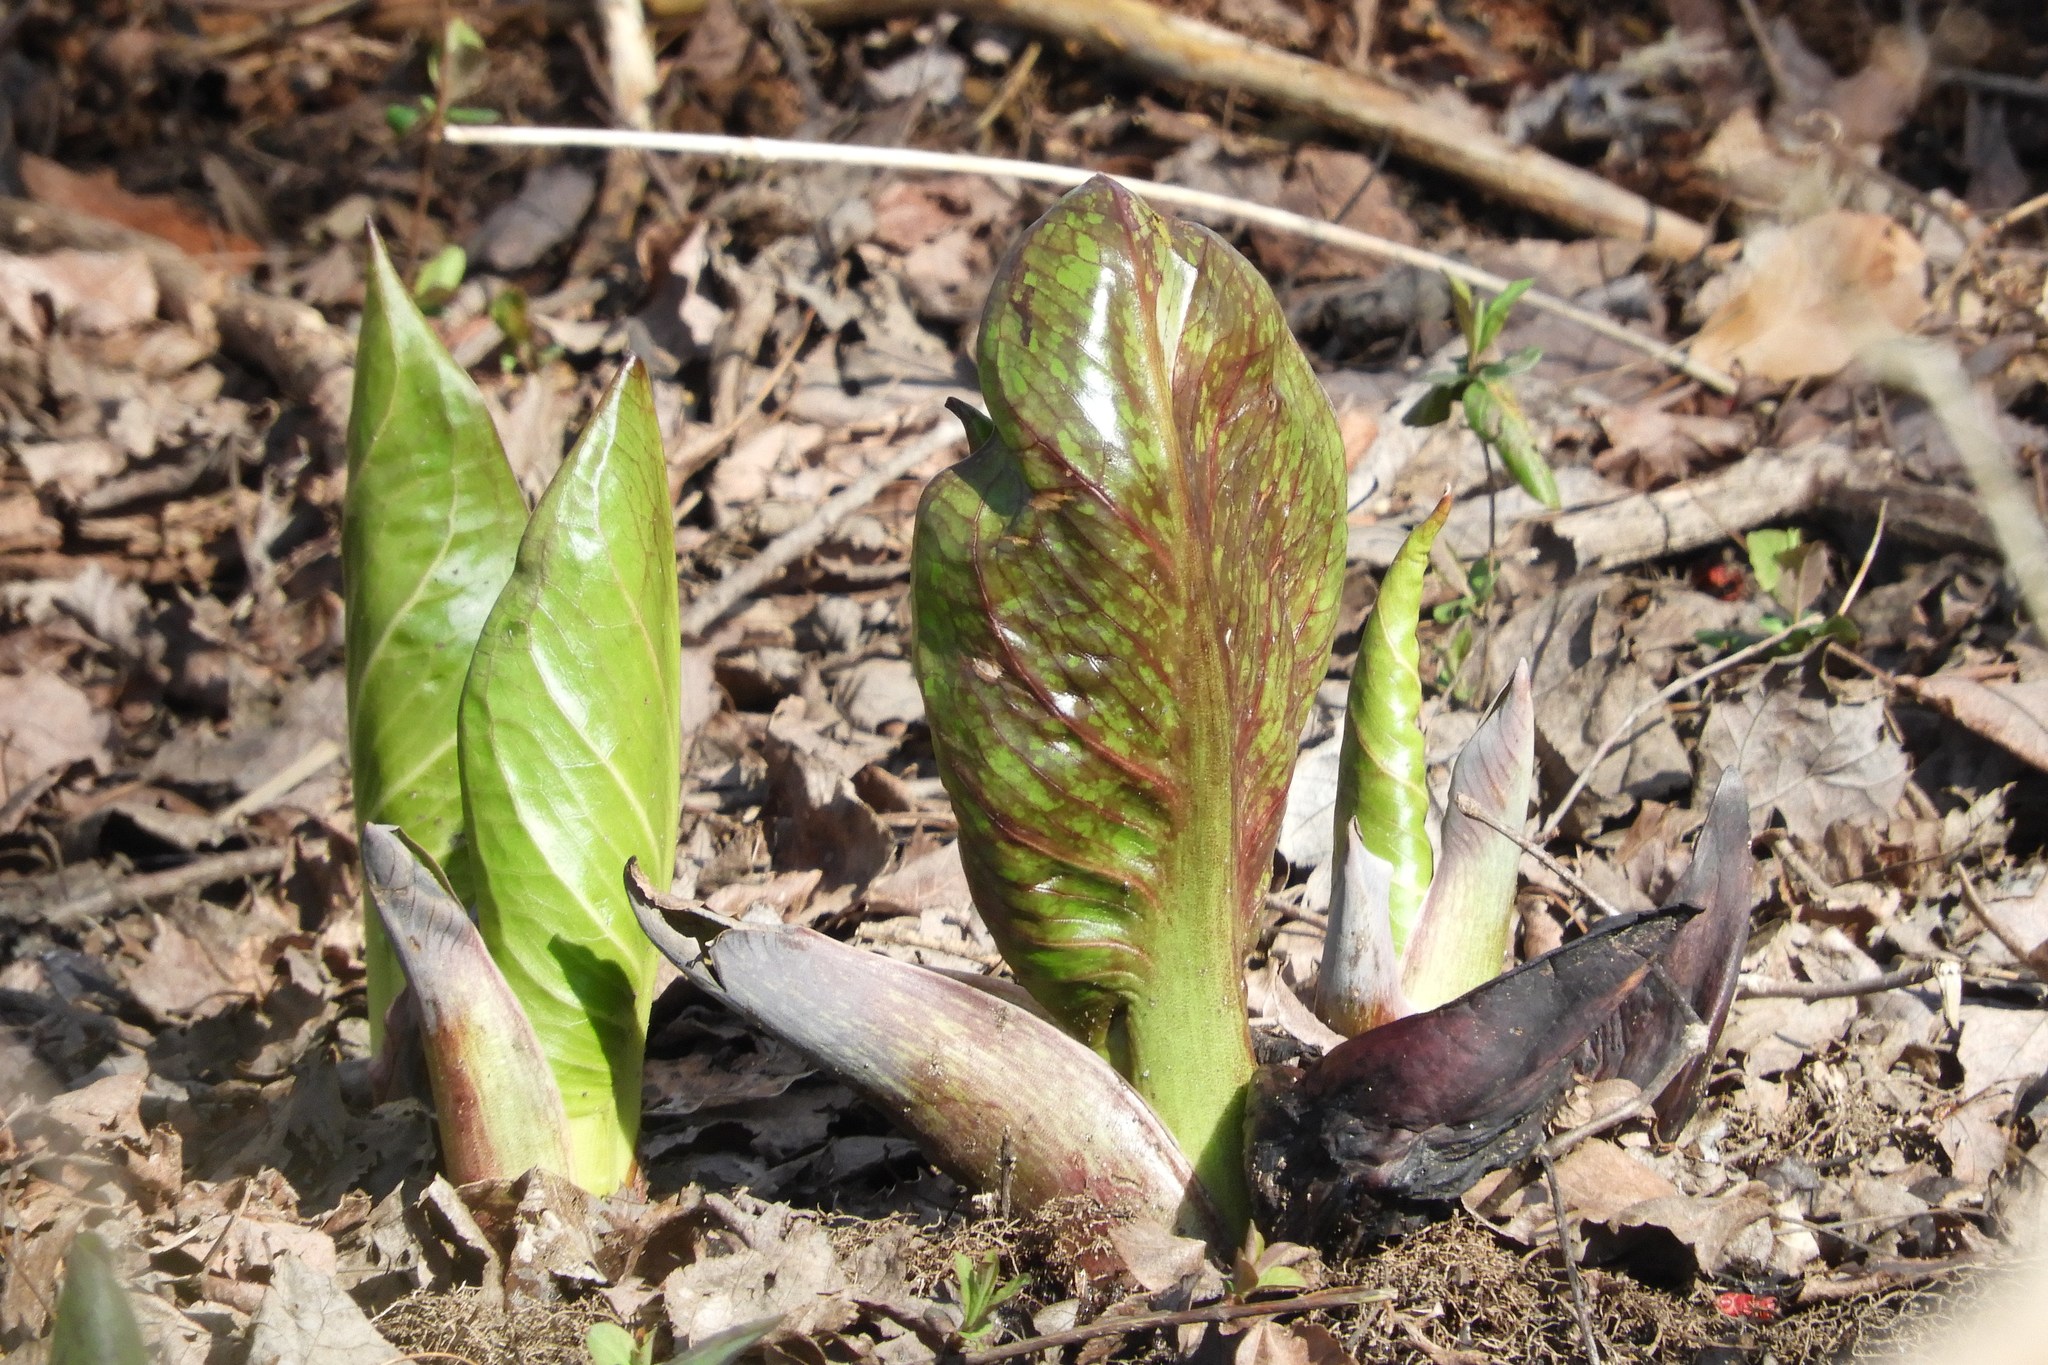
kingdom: Plantae
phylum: Tracheophyta
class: Liliopsida
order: Alismatales
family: Araceae
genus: Symplocarpus
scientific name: Symplocarpus foetidus
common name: Eastern skunk cabbage
